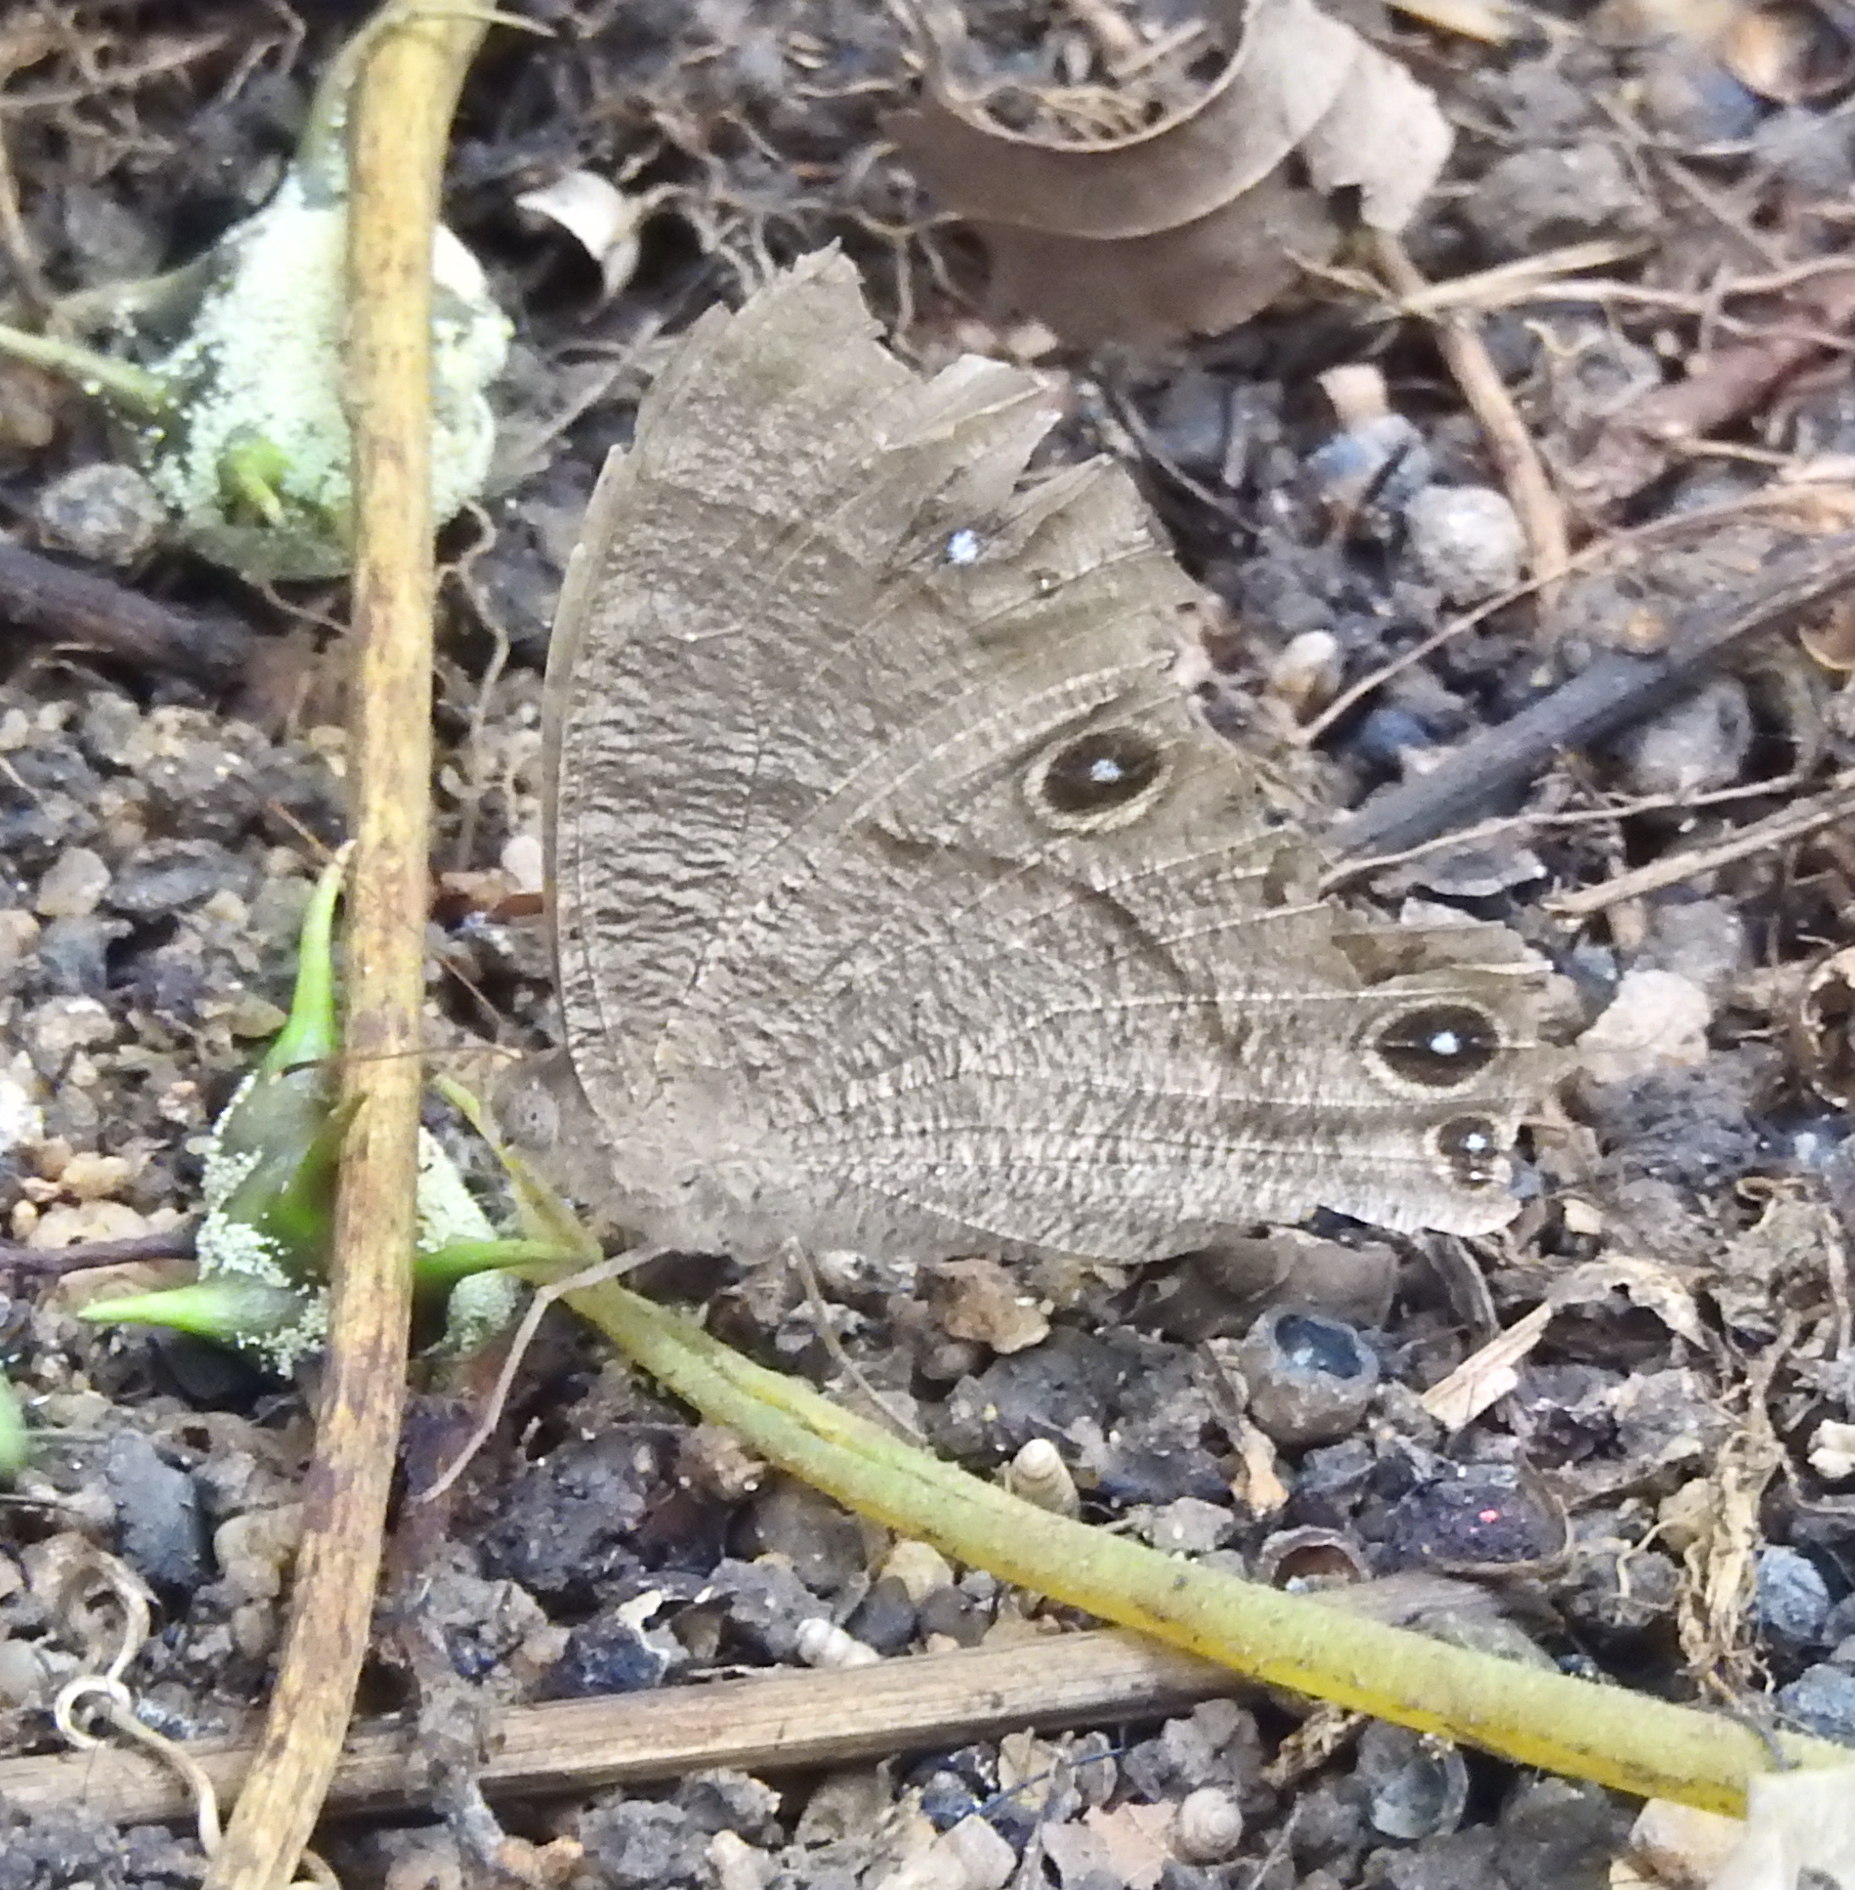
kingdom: Animalia
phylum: Arthropoda
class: Insecta
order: Lepidoptera
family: Nymphalidae
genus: Melanitis
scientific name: Melanitis leda
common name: Twilight brown
